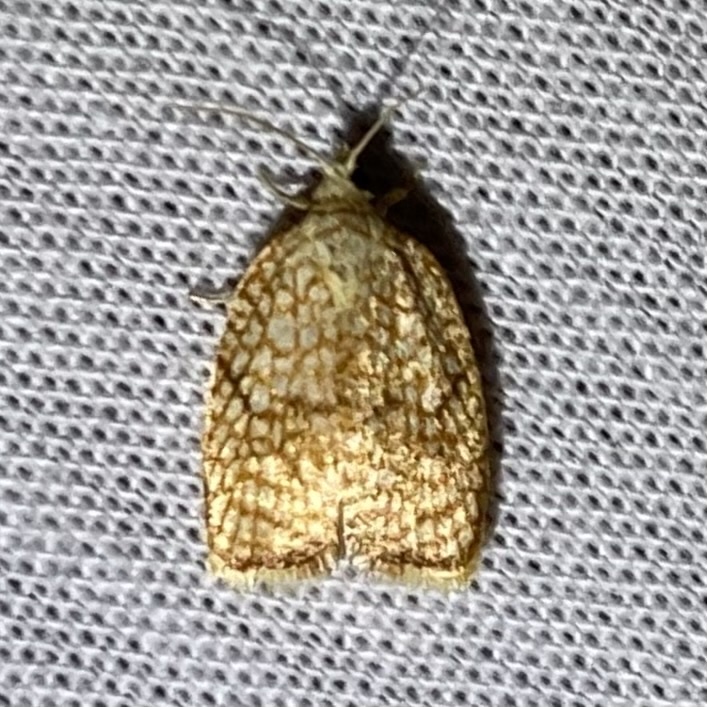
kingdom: Animalia
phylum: Arthropoda
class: Insecta
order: Lepidoptera
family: Tortricidae
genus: Acleris
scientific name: Acleris forsskaleana
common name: Maple button
